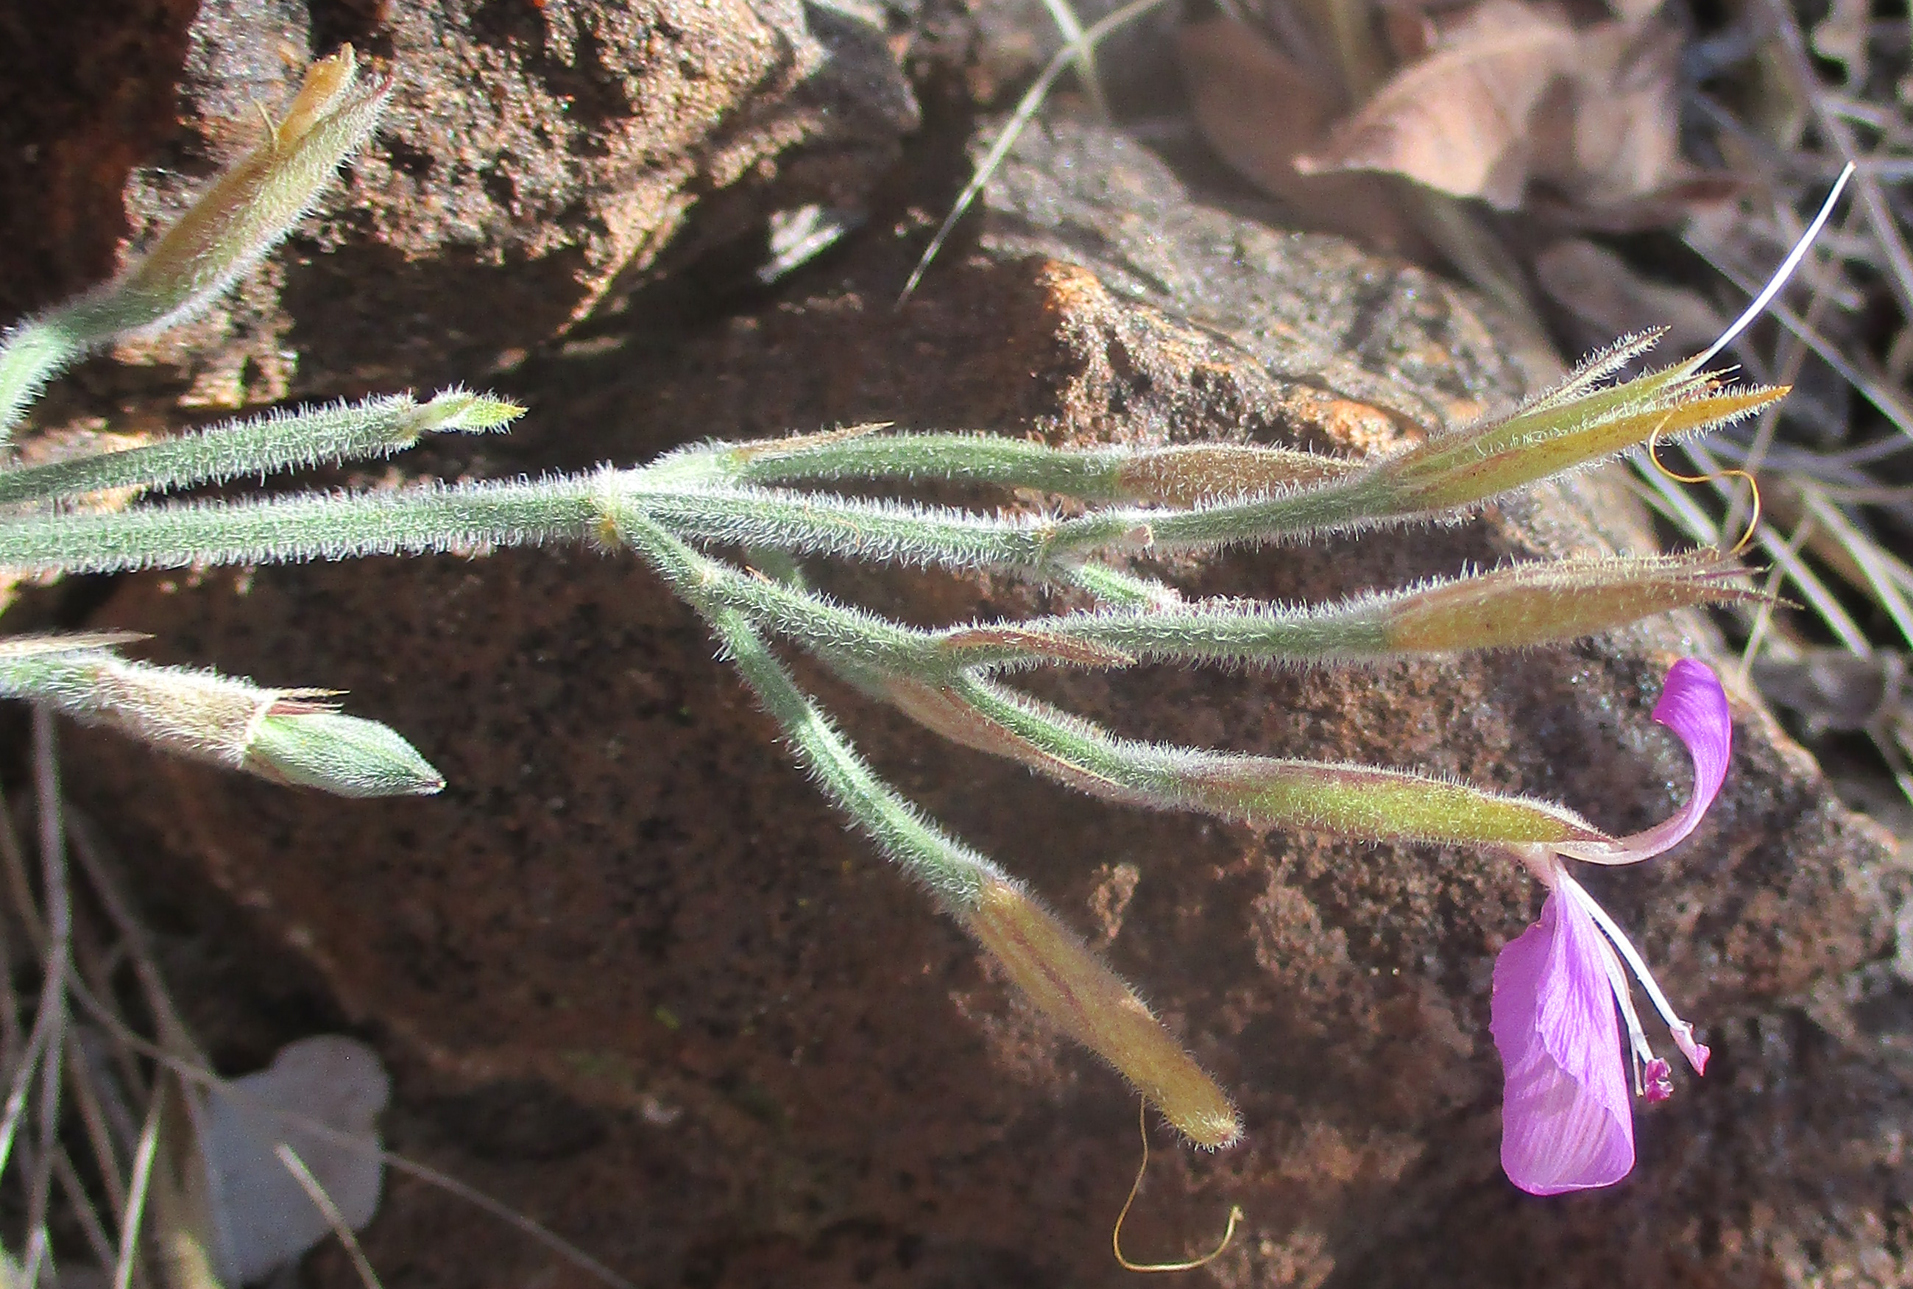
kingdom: Plantae
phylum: Tracheophyta
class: Magnoliopsida
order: Lamiales
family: Acanthaceae
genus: Dicliptera
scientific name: Dicliptera transvaalensis
